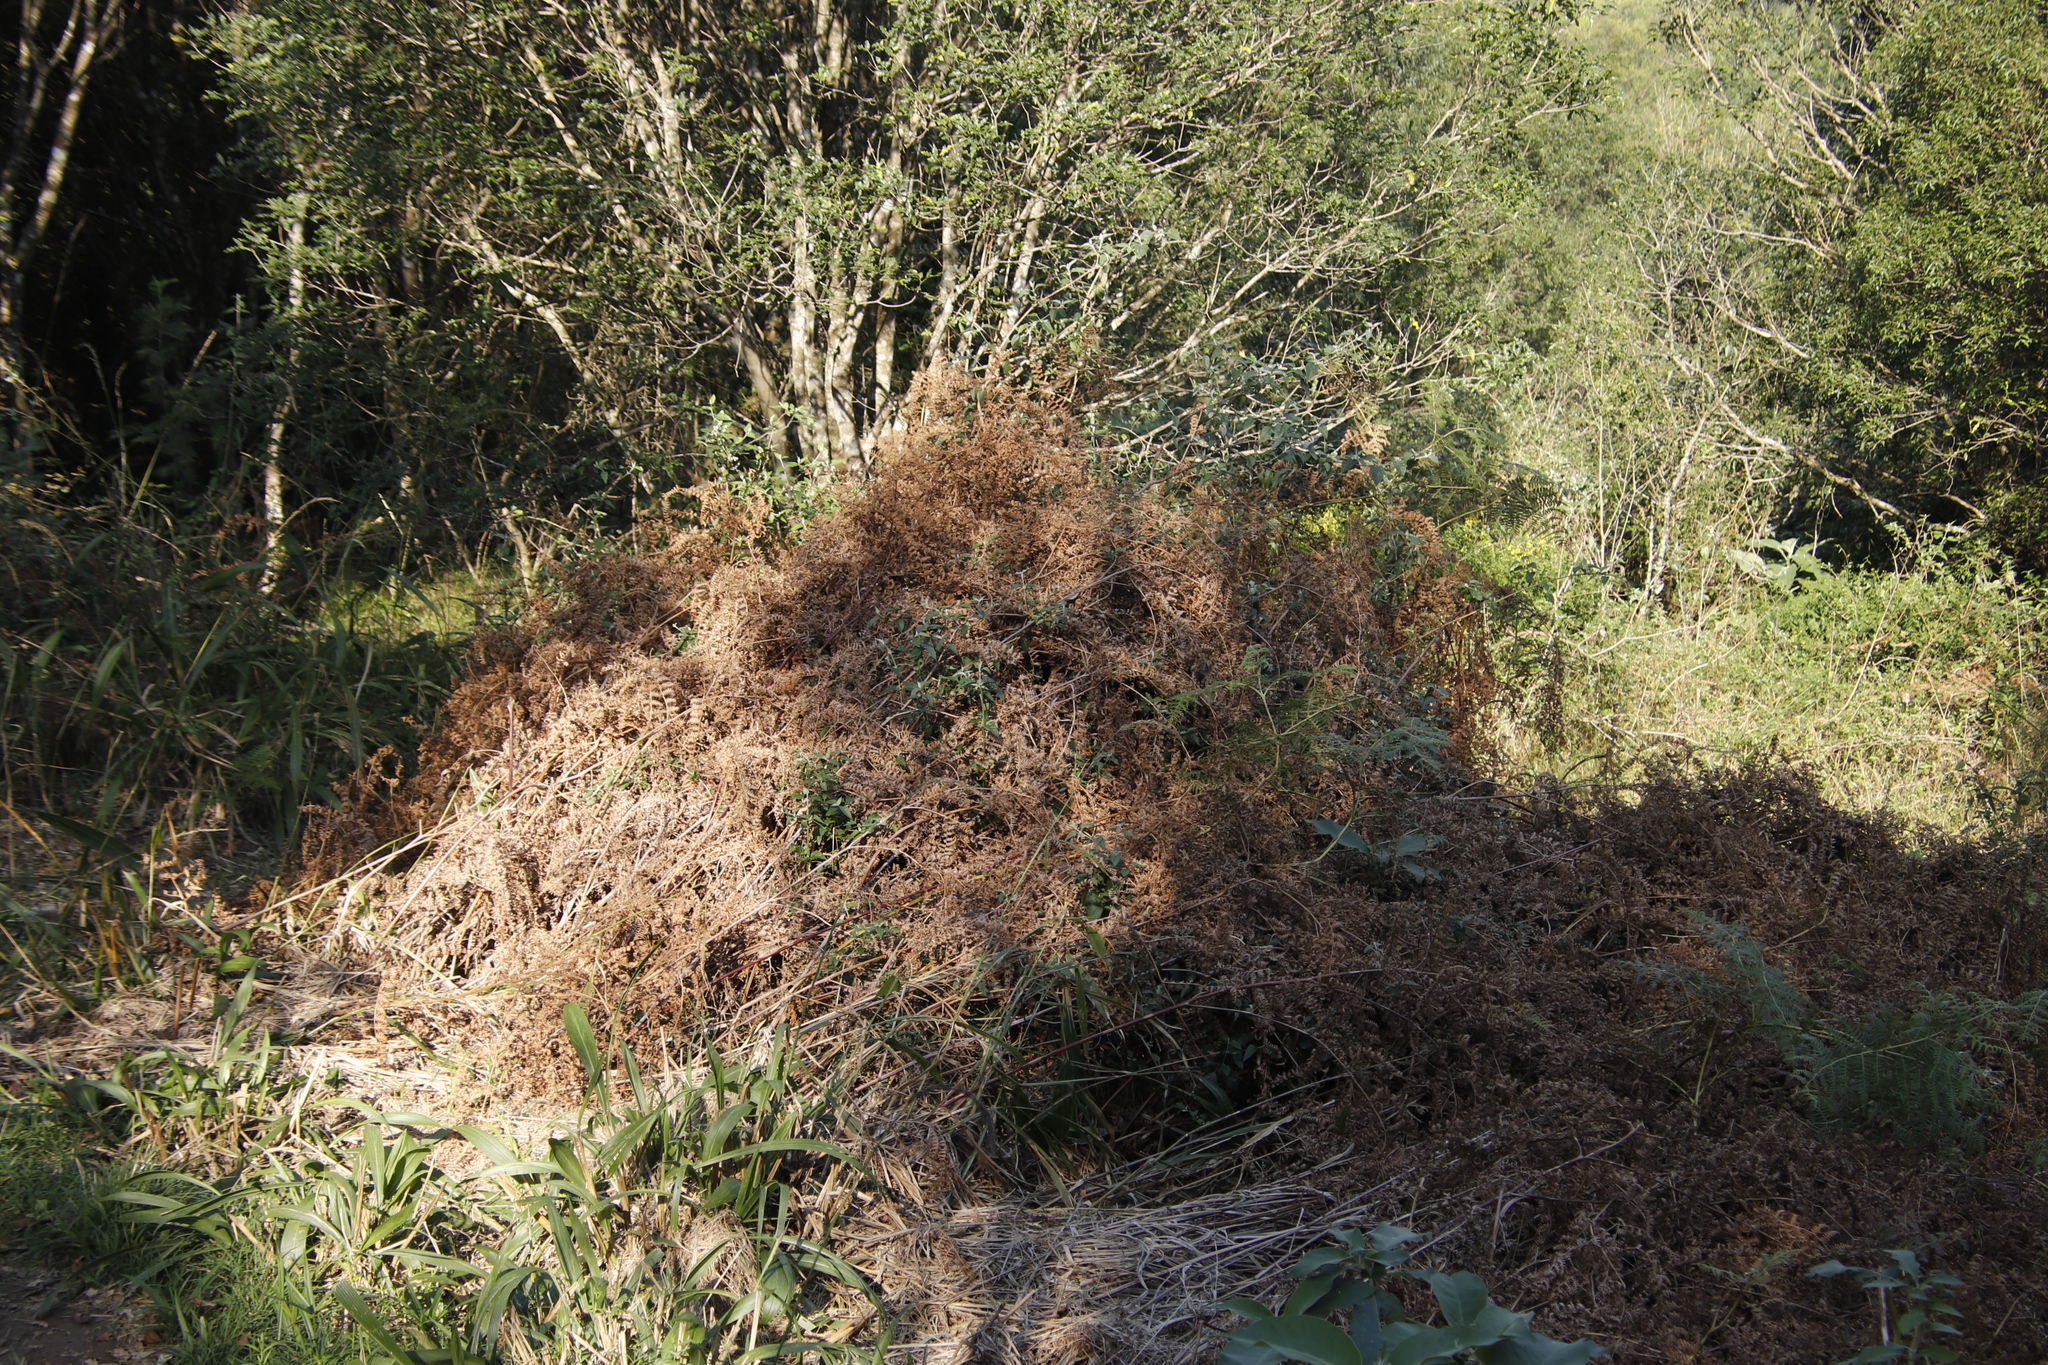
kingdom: Plantae
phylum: Tracheophyta
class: Polypodiopsida
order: Polypodiales
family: Dennstaedtiaceae
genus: Pteridium
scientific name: Pteridium aquilinum
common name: Bracken
